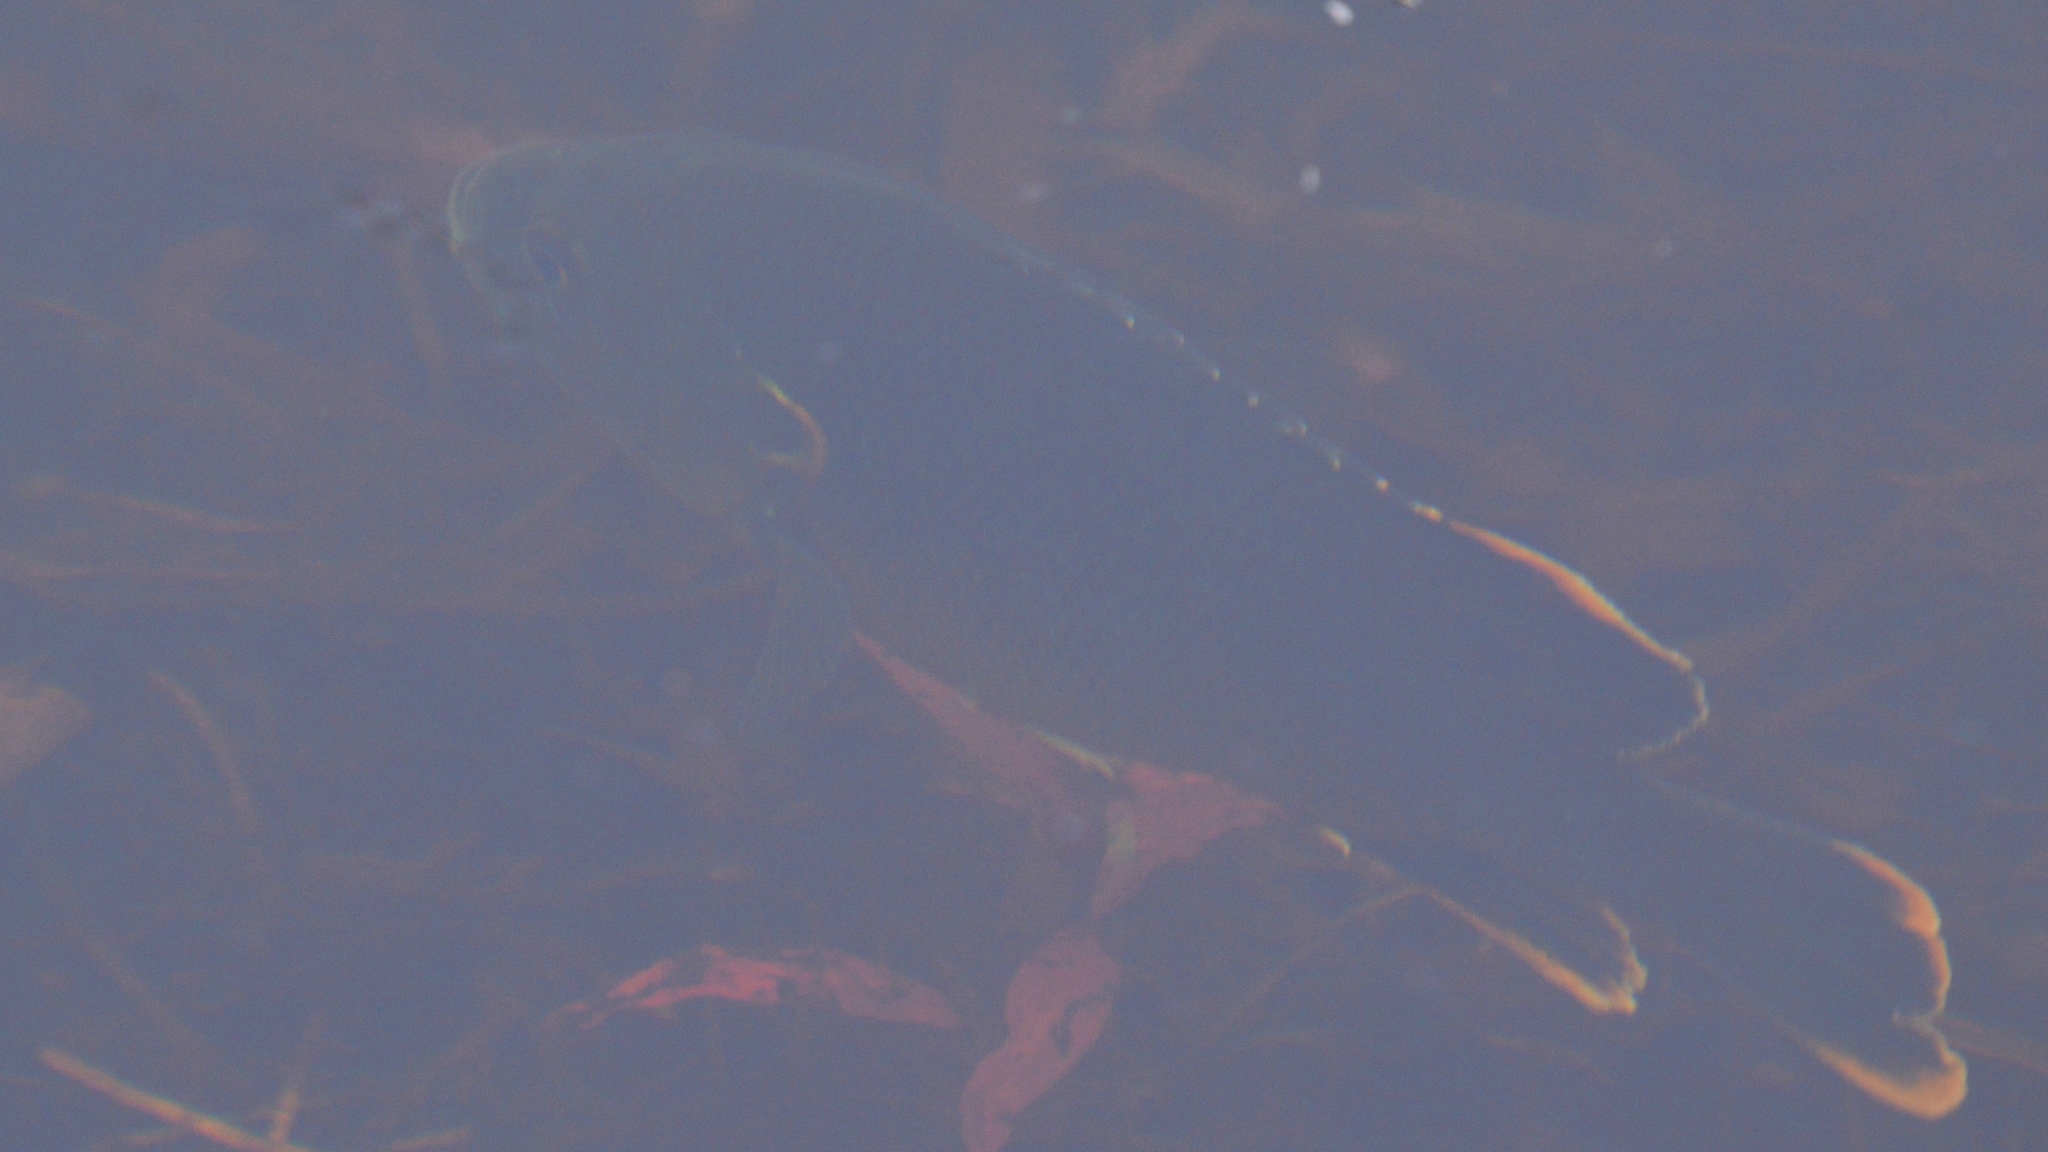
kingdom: Animalia
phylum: Chordata
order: Perciformes
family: Centrarchidae
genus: Lepomis
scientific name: Lepomis cyanellus
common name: Green sunfish
